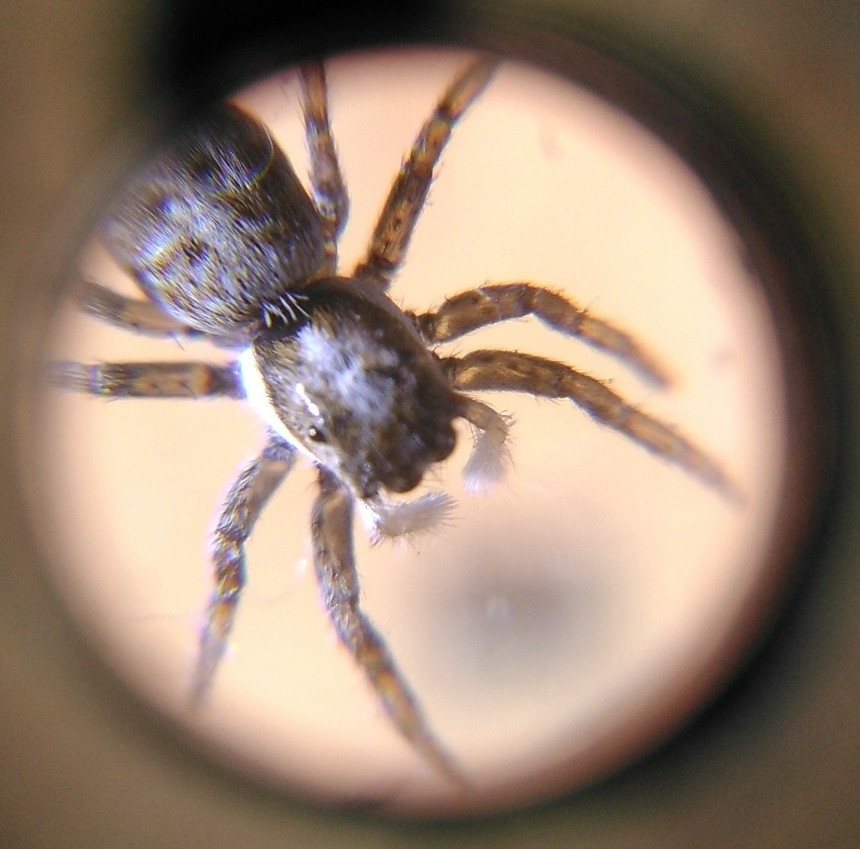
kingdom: Animalia
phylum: Arthropoda
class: Arachnida
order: Araneae
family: Salticidae
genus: Menemerus
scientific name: Menemerus semilimbatus
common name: Jumping spider
